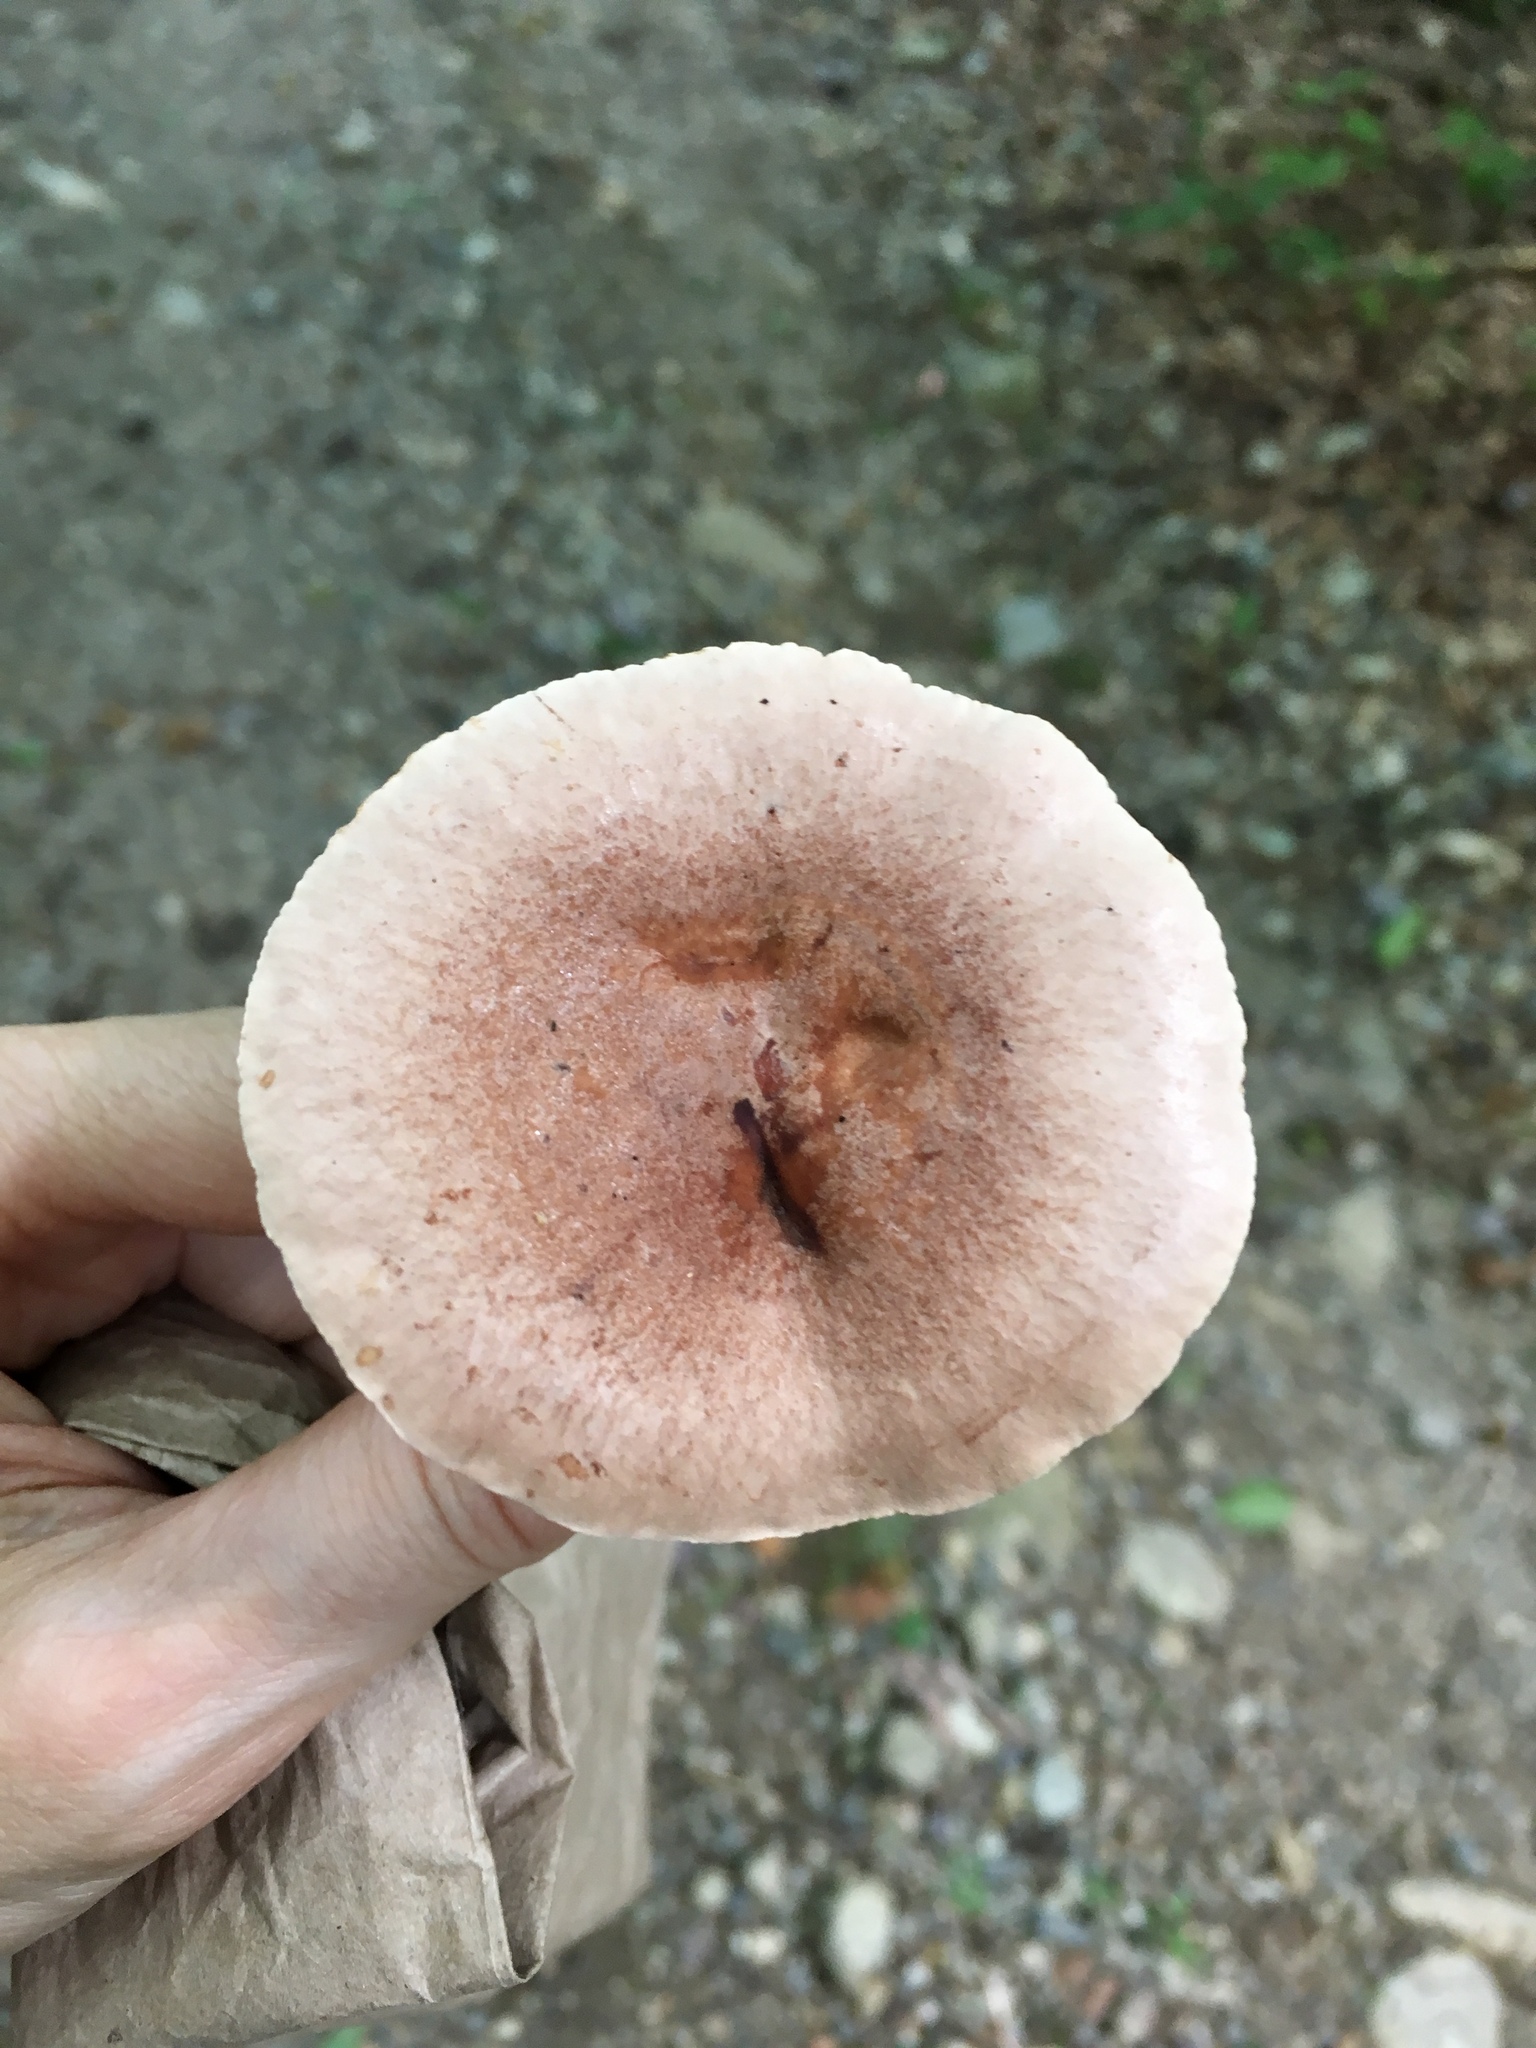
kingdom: Fungi
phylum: Basidiomycota
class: Agaricomycetes
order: Russulales
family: Russulaceae
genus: Lactarius
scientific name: Lactarius mutabilis
